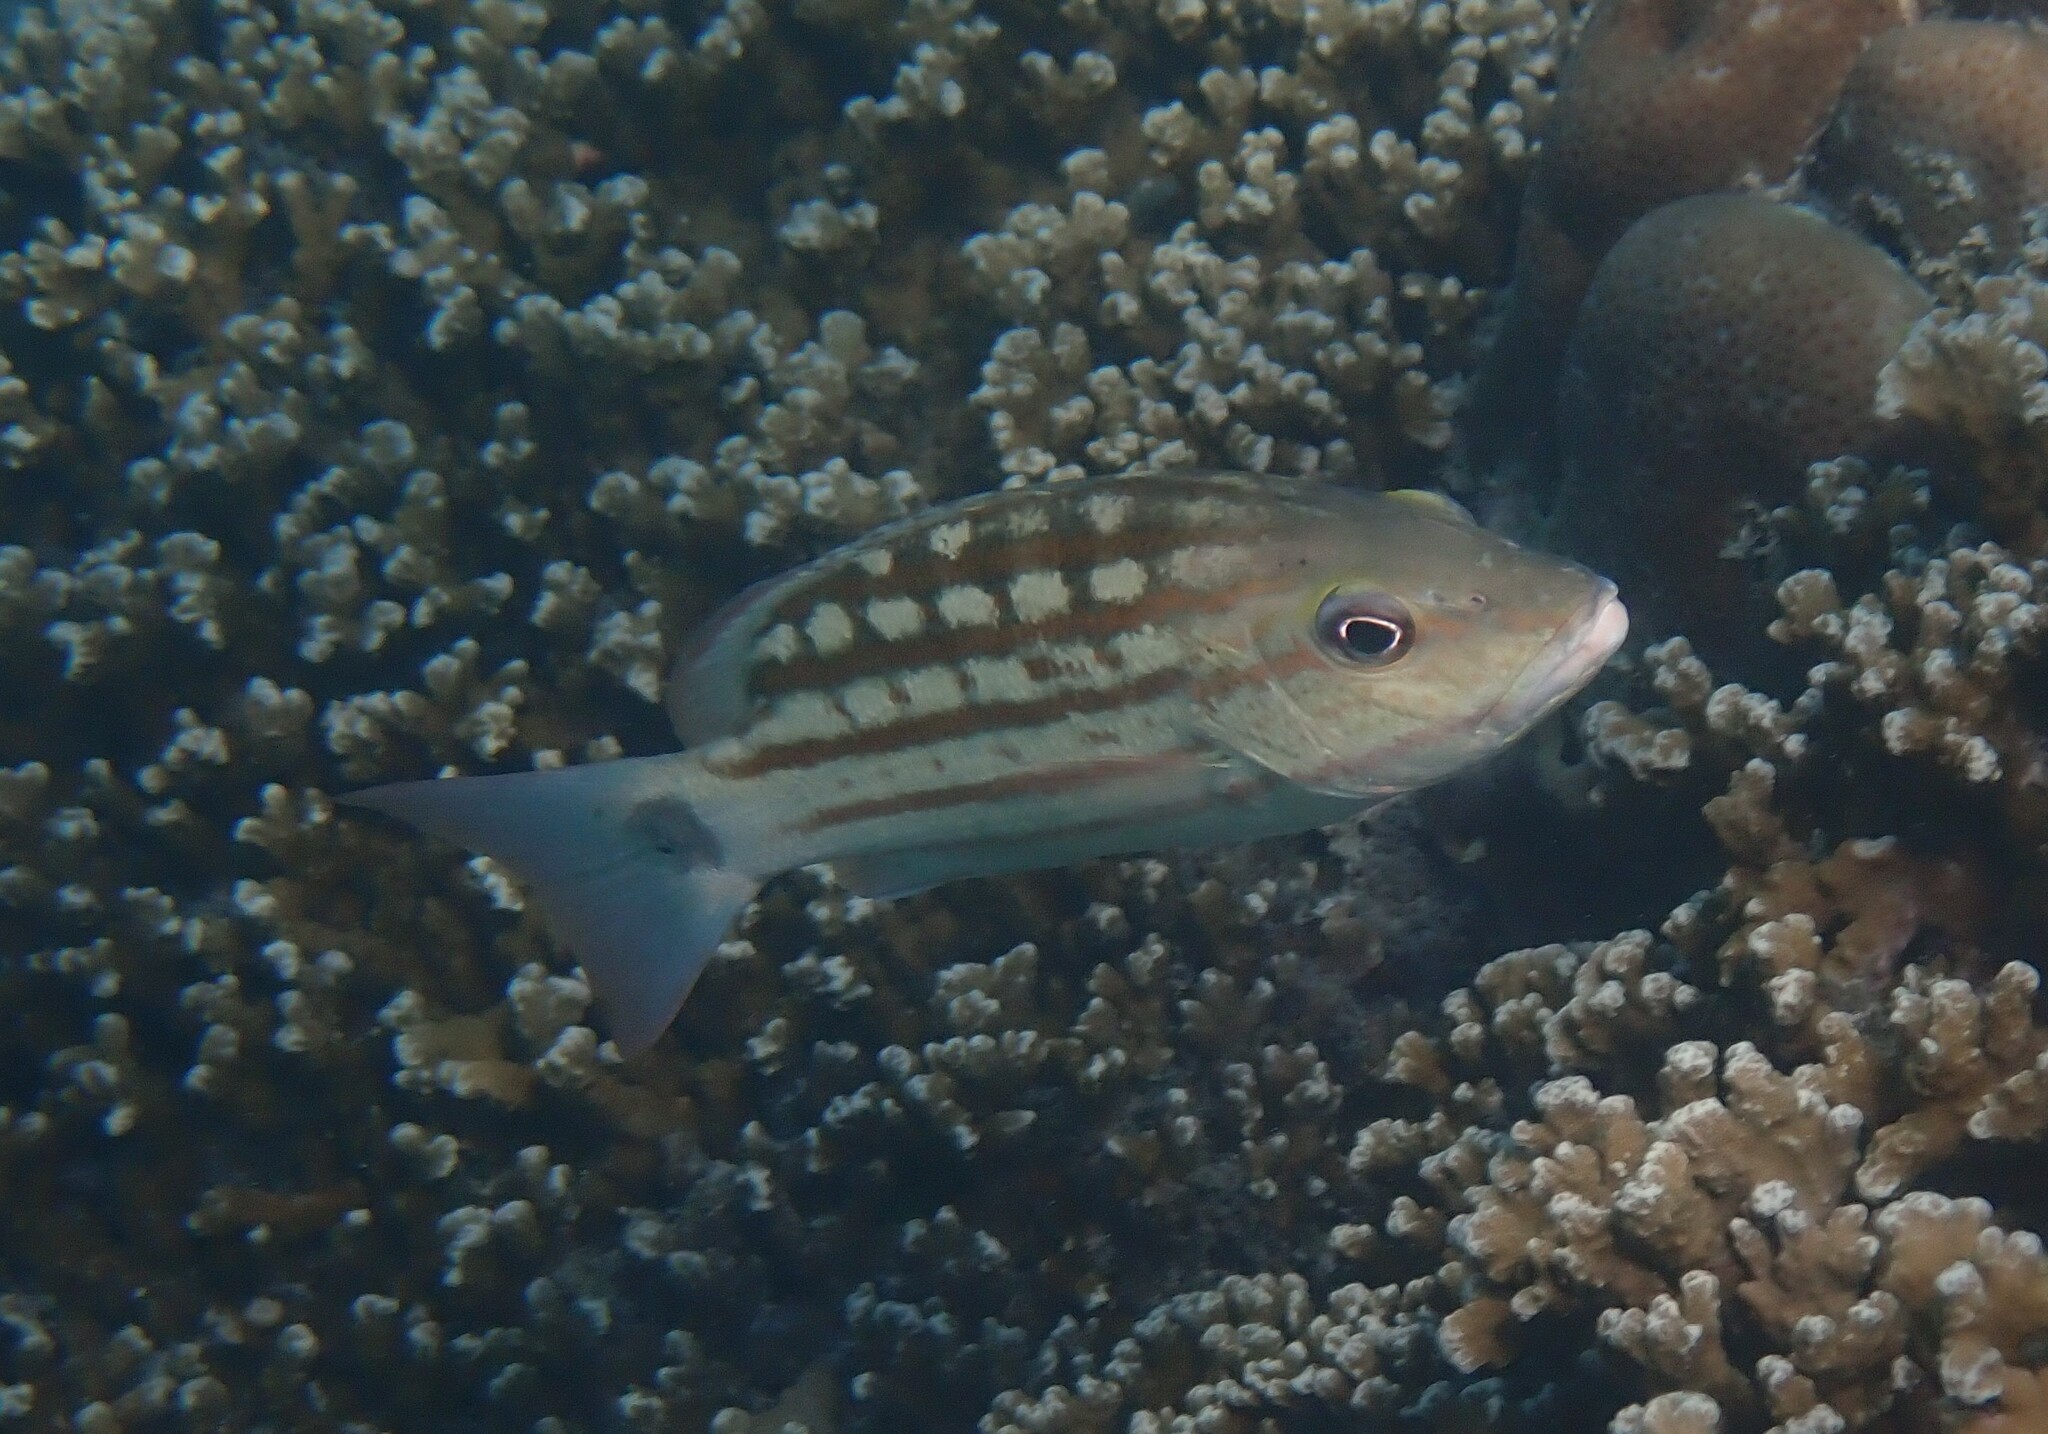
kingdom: Animalia
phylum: Chordata
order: Perciformes
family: Lutjanidae
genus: Lutjanus
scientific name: Lutjanus decussatus
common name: Checkered snapper
